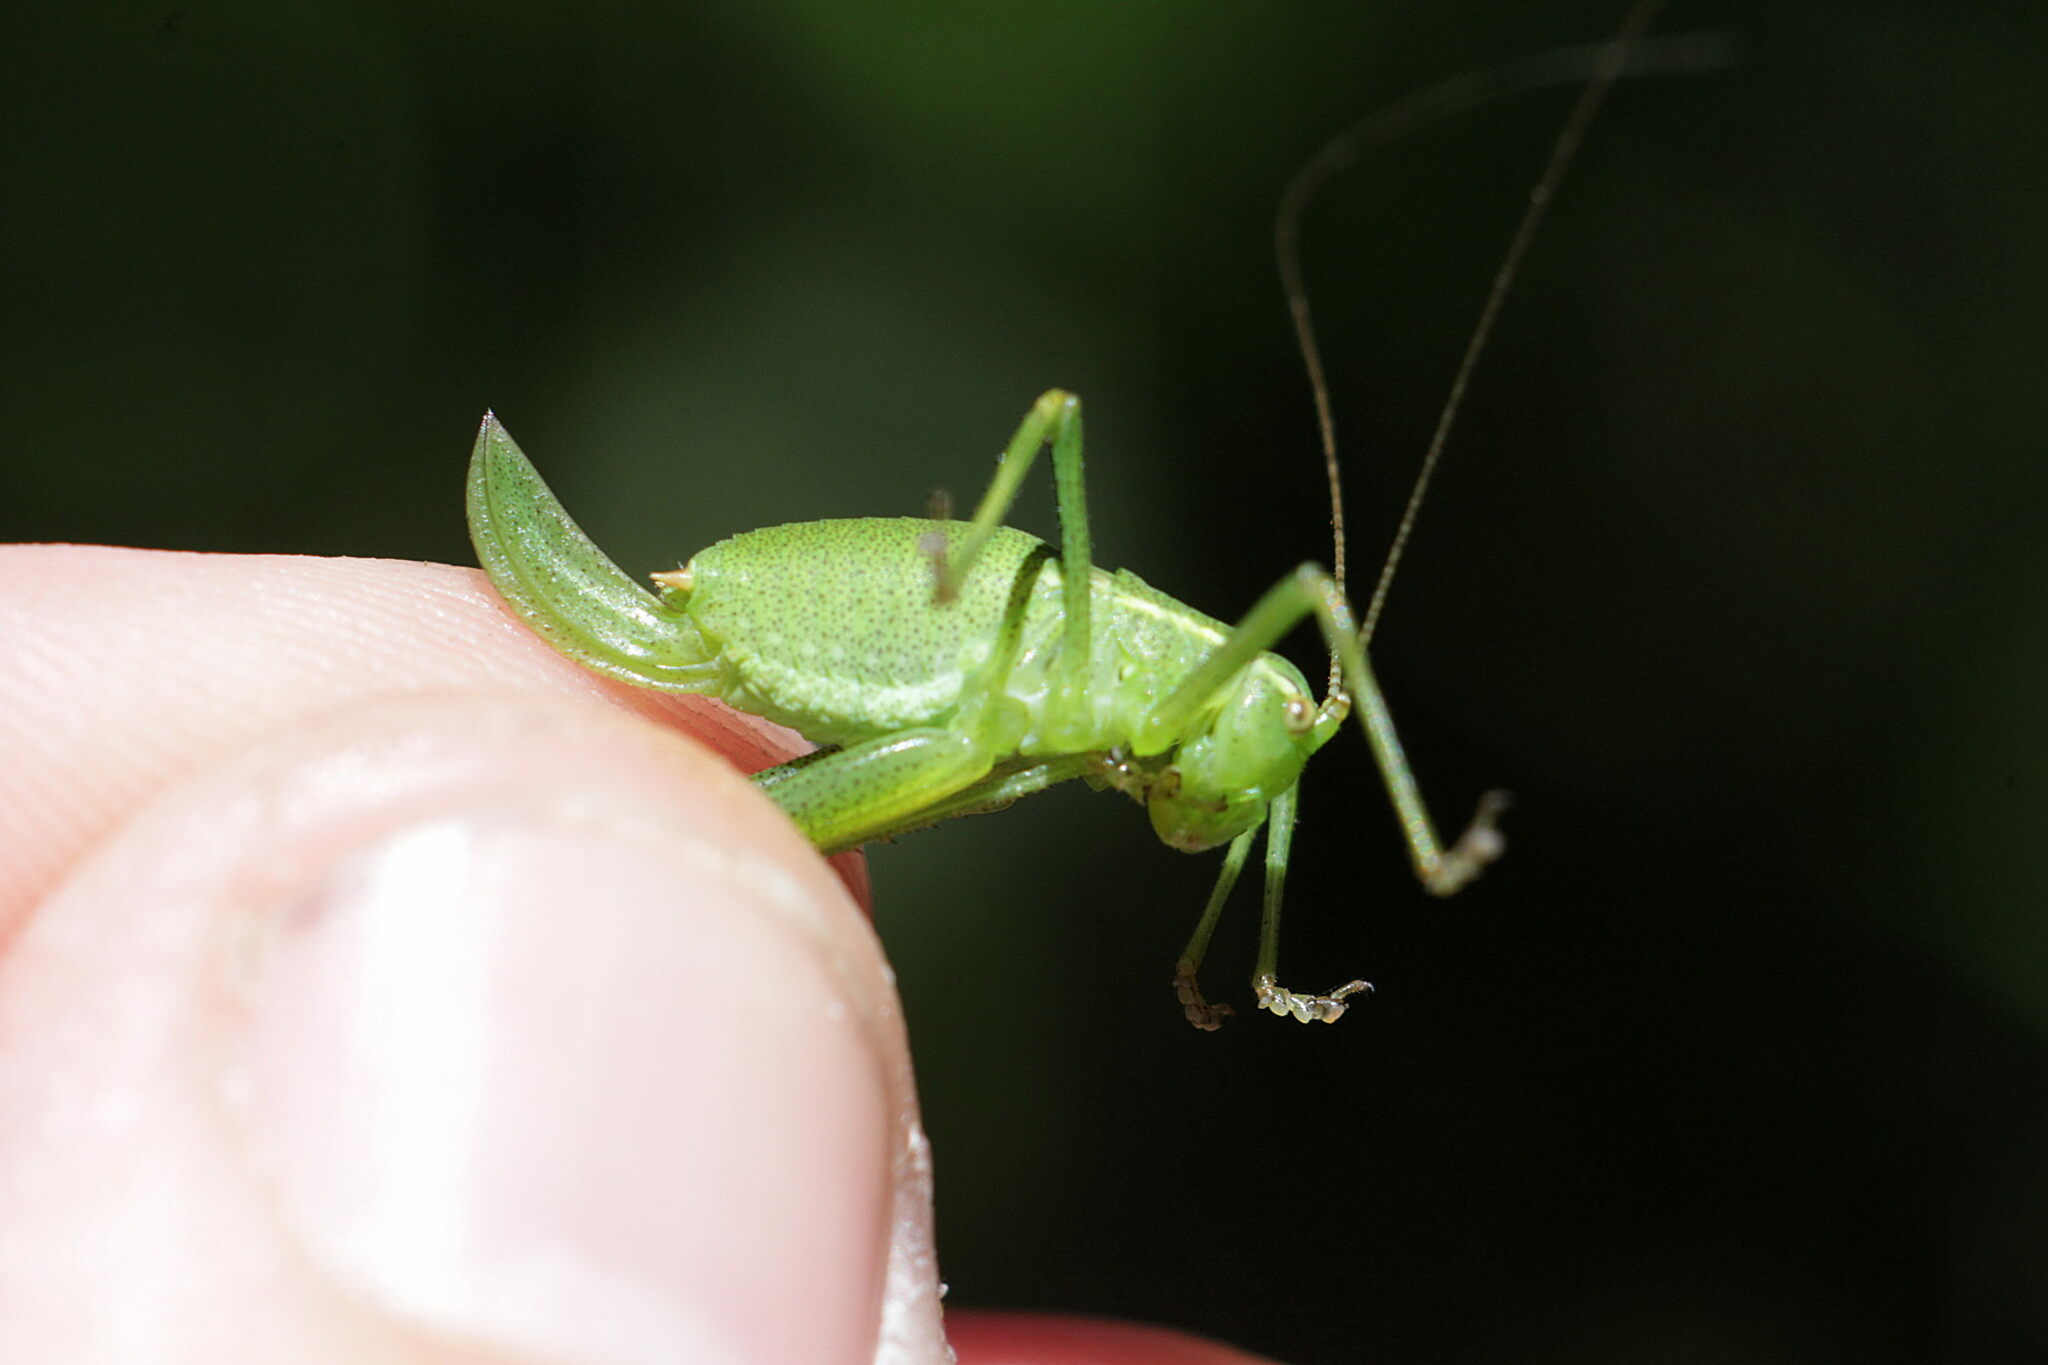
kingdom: Animalia
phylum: Arthropoda
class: Insecta
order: Orthoptera
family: Tettigoniidae
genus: Leptophyes
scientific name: Leptophyes punctatissima
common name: Speckled bush-cricket
